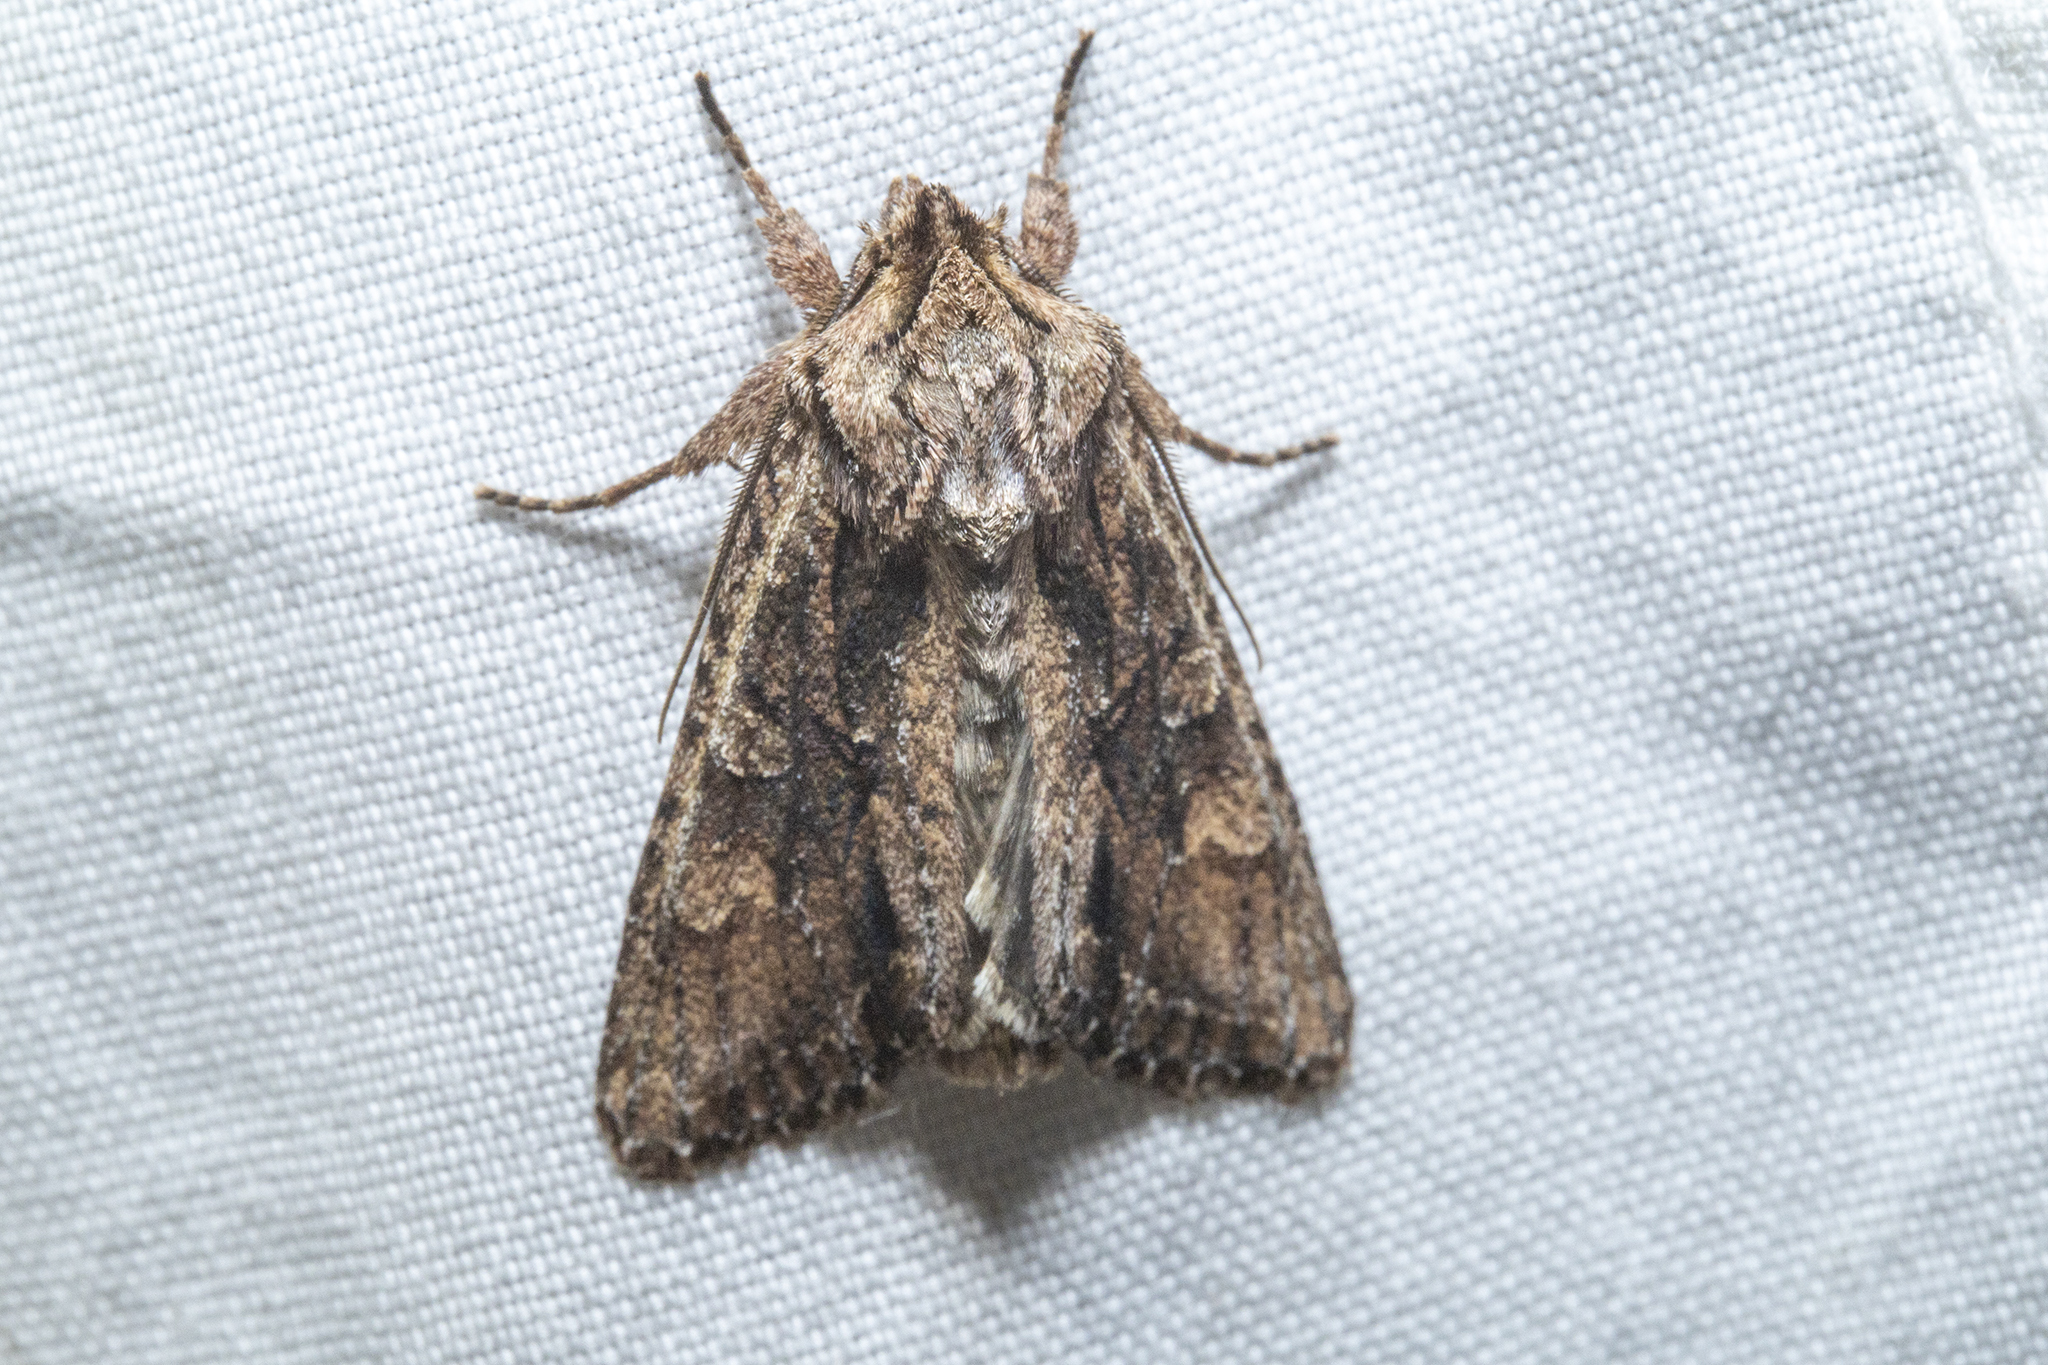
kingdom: Animalia
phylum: Arthropoda
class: Insecta
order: Lepidoptera
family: Noctuidae
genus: Ichneutica
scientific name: Ichneutica mutans
